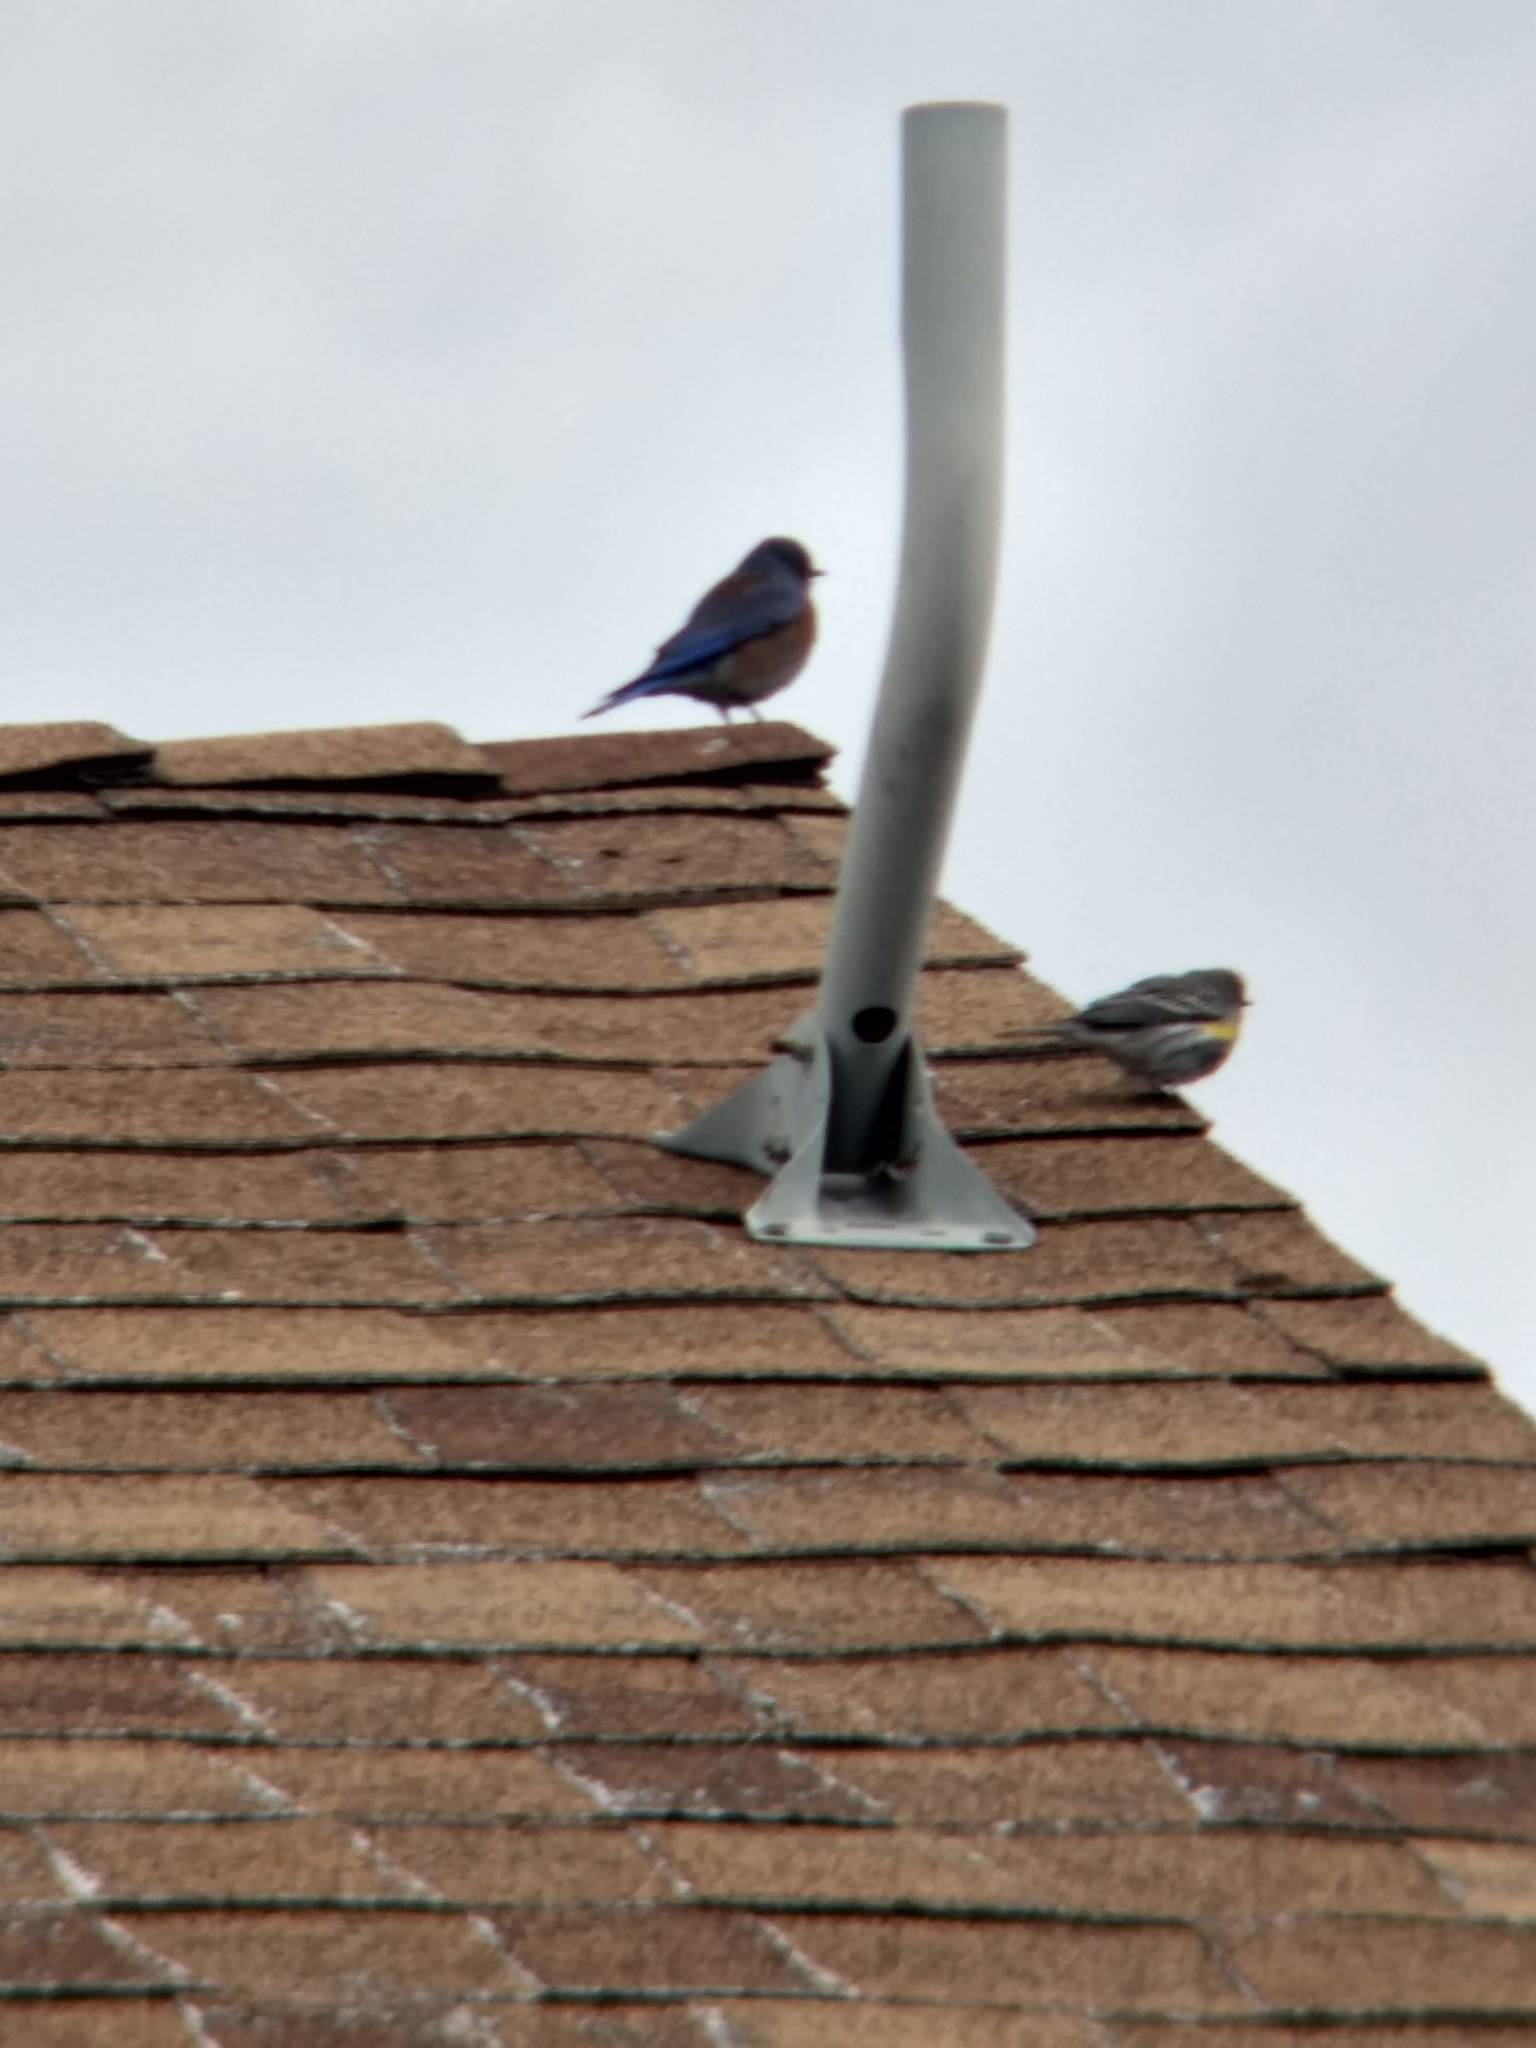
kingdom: Animalia
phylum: Chordata
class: Aves
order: Passeriformes
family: Turdidae
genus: Sialia
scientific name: Sialia mexicana
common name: Western bluebird
